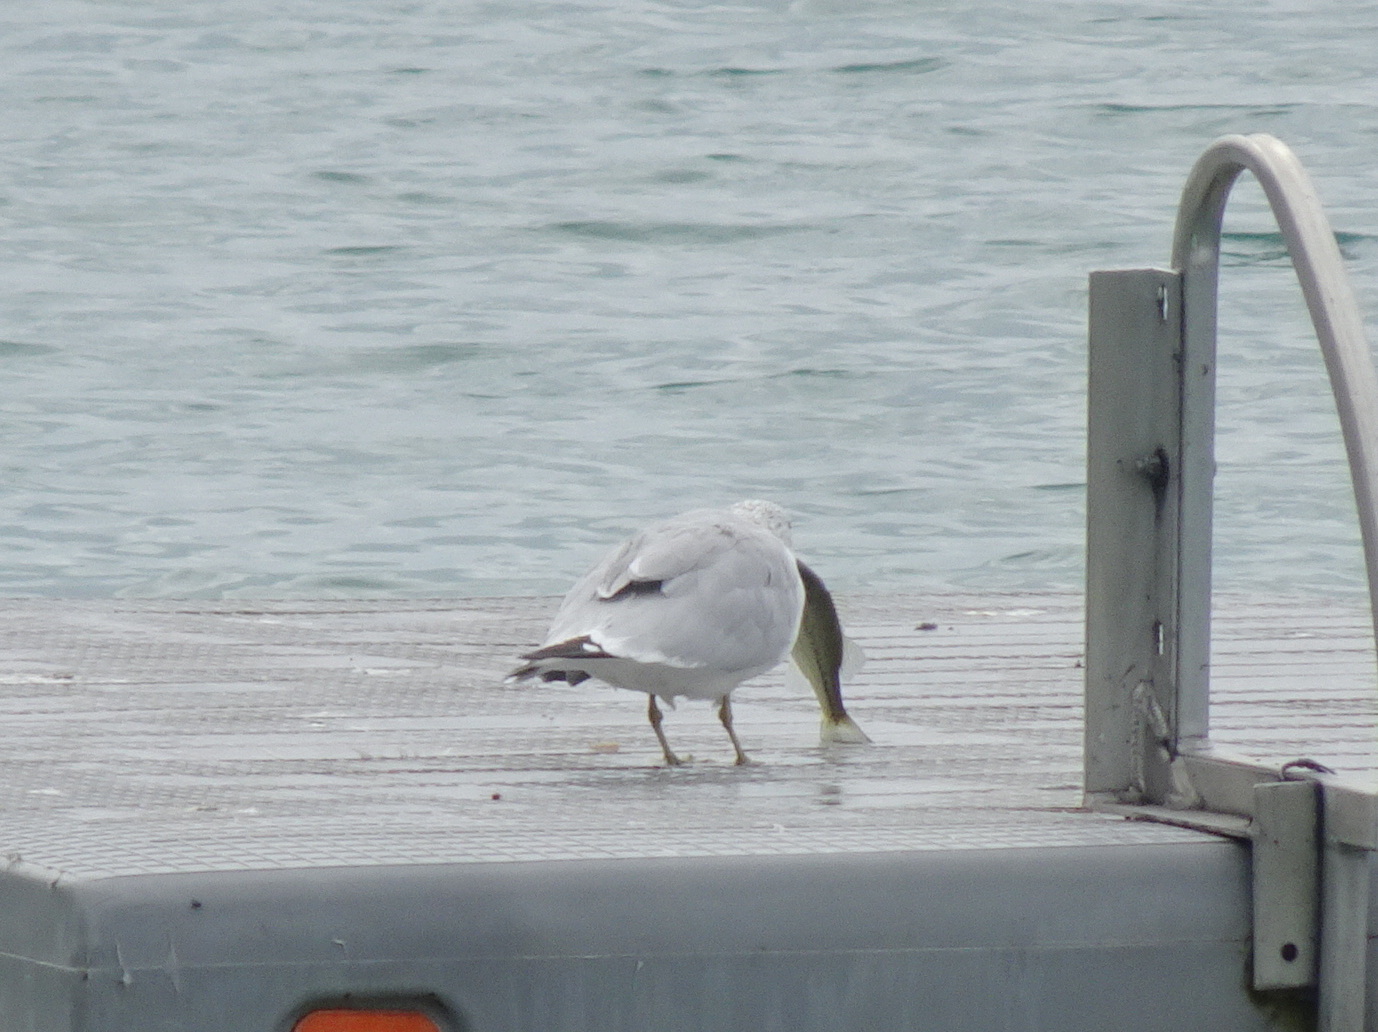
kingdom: Animalia
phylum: Chordata
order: Perciformes
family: Centrarchidae
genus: Micropterus
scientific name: Micropterus
